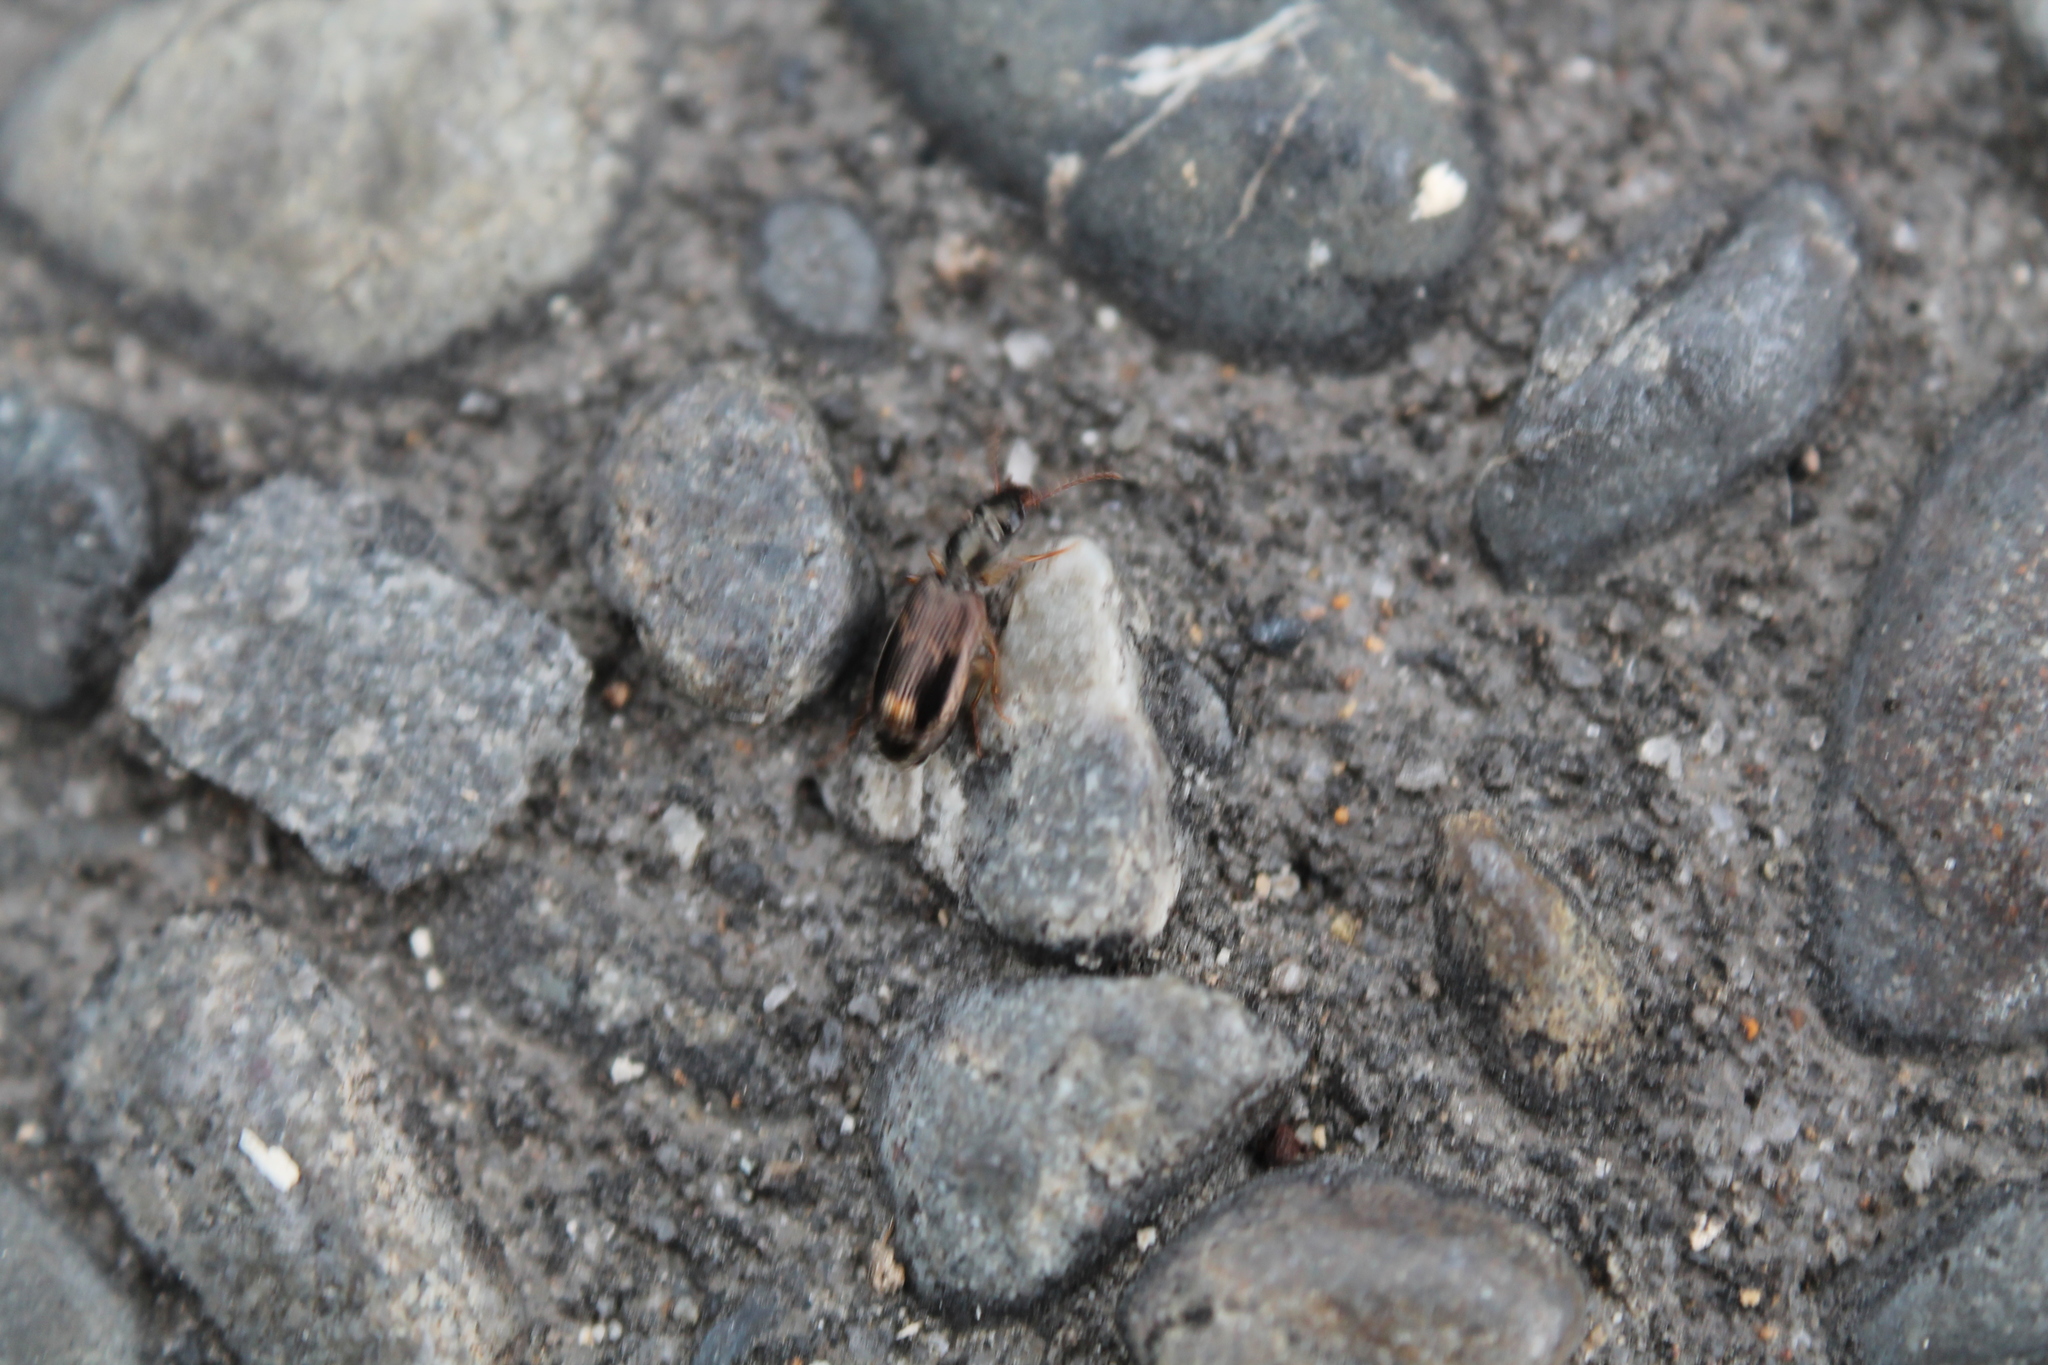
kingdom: Animalia
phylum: Arthropoda
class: Insecta
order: Coleoptera
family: Carabidae
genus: Anomotarus
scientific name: Anomotarus variegatus
